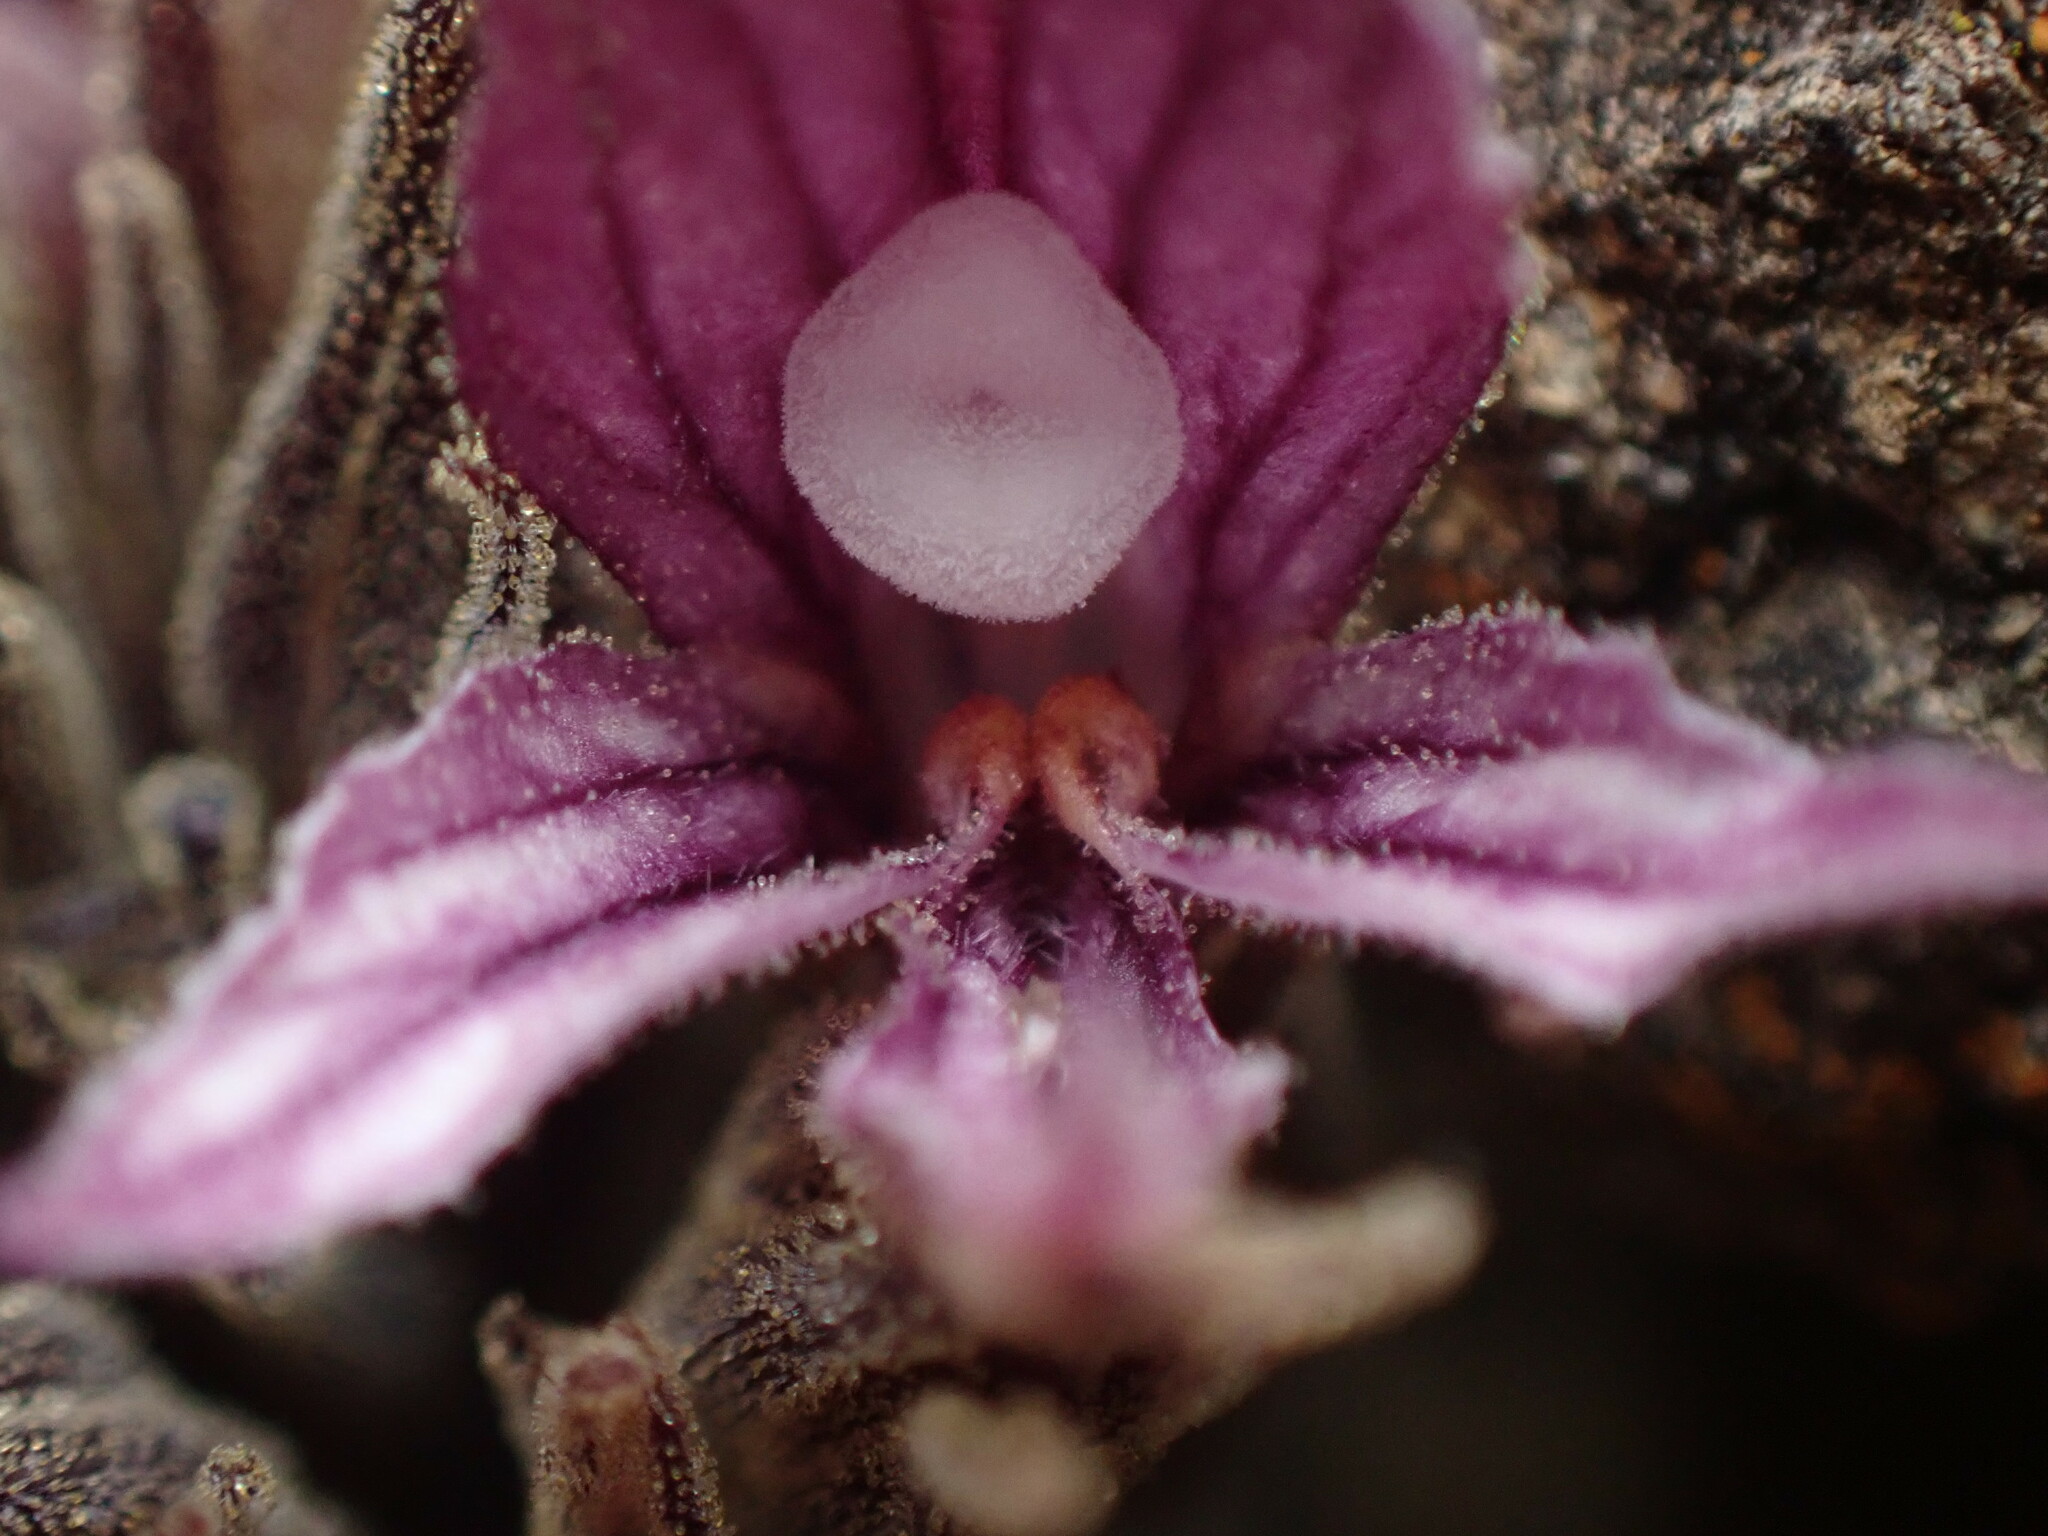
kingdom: Plantae
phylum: Tracheophyta
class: Magnoliopsida
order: Lamiales
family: Orobanchaceae
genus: Aphyllon
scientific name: Aphyllon californicum
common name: California broomrape
